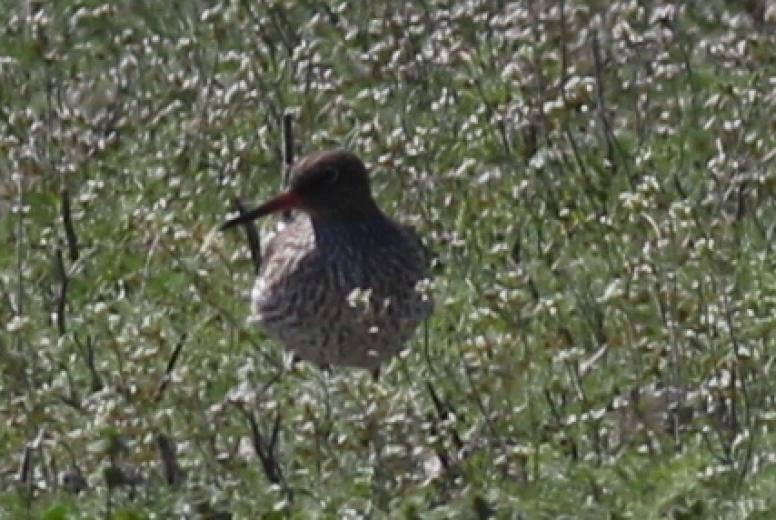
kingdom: Animalia
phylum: Chordata
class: Aves
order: Charadriiformes
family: Scolopacidae
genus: Tringa
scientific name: Tringa totanus
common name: Common redshank
